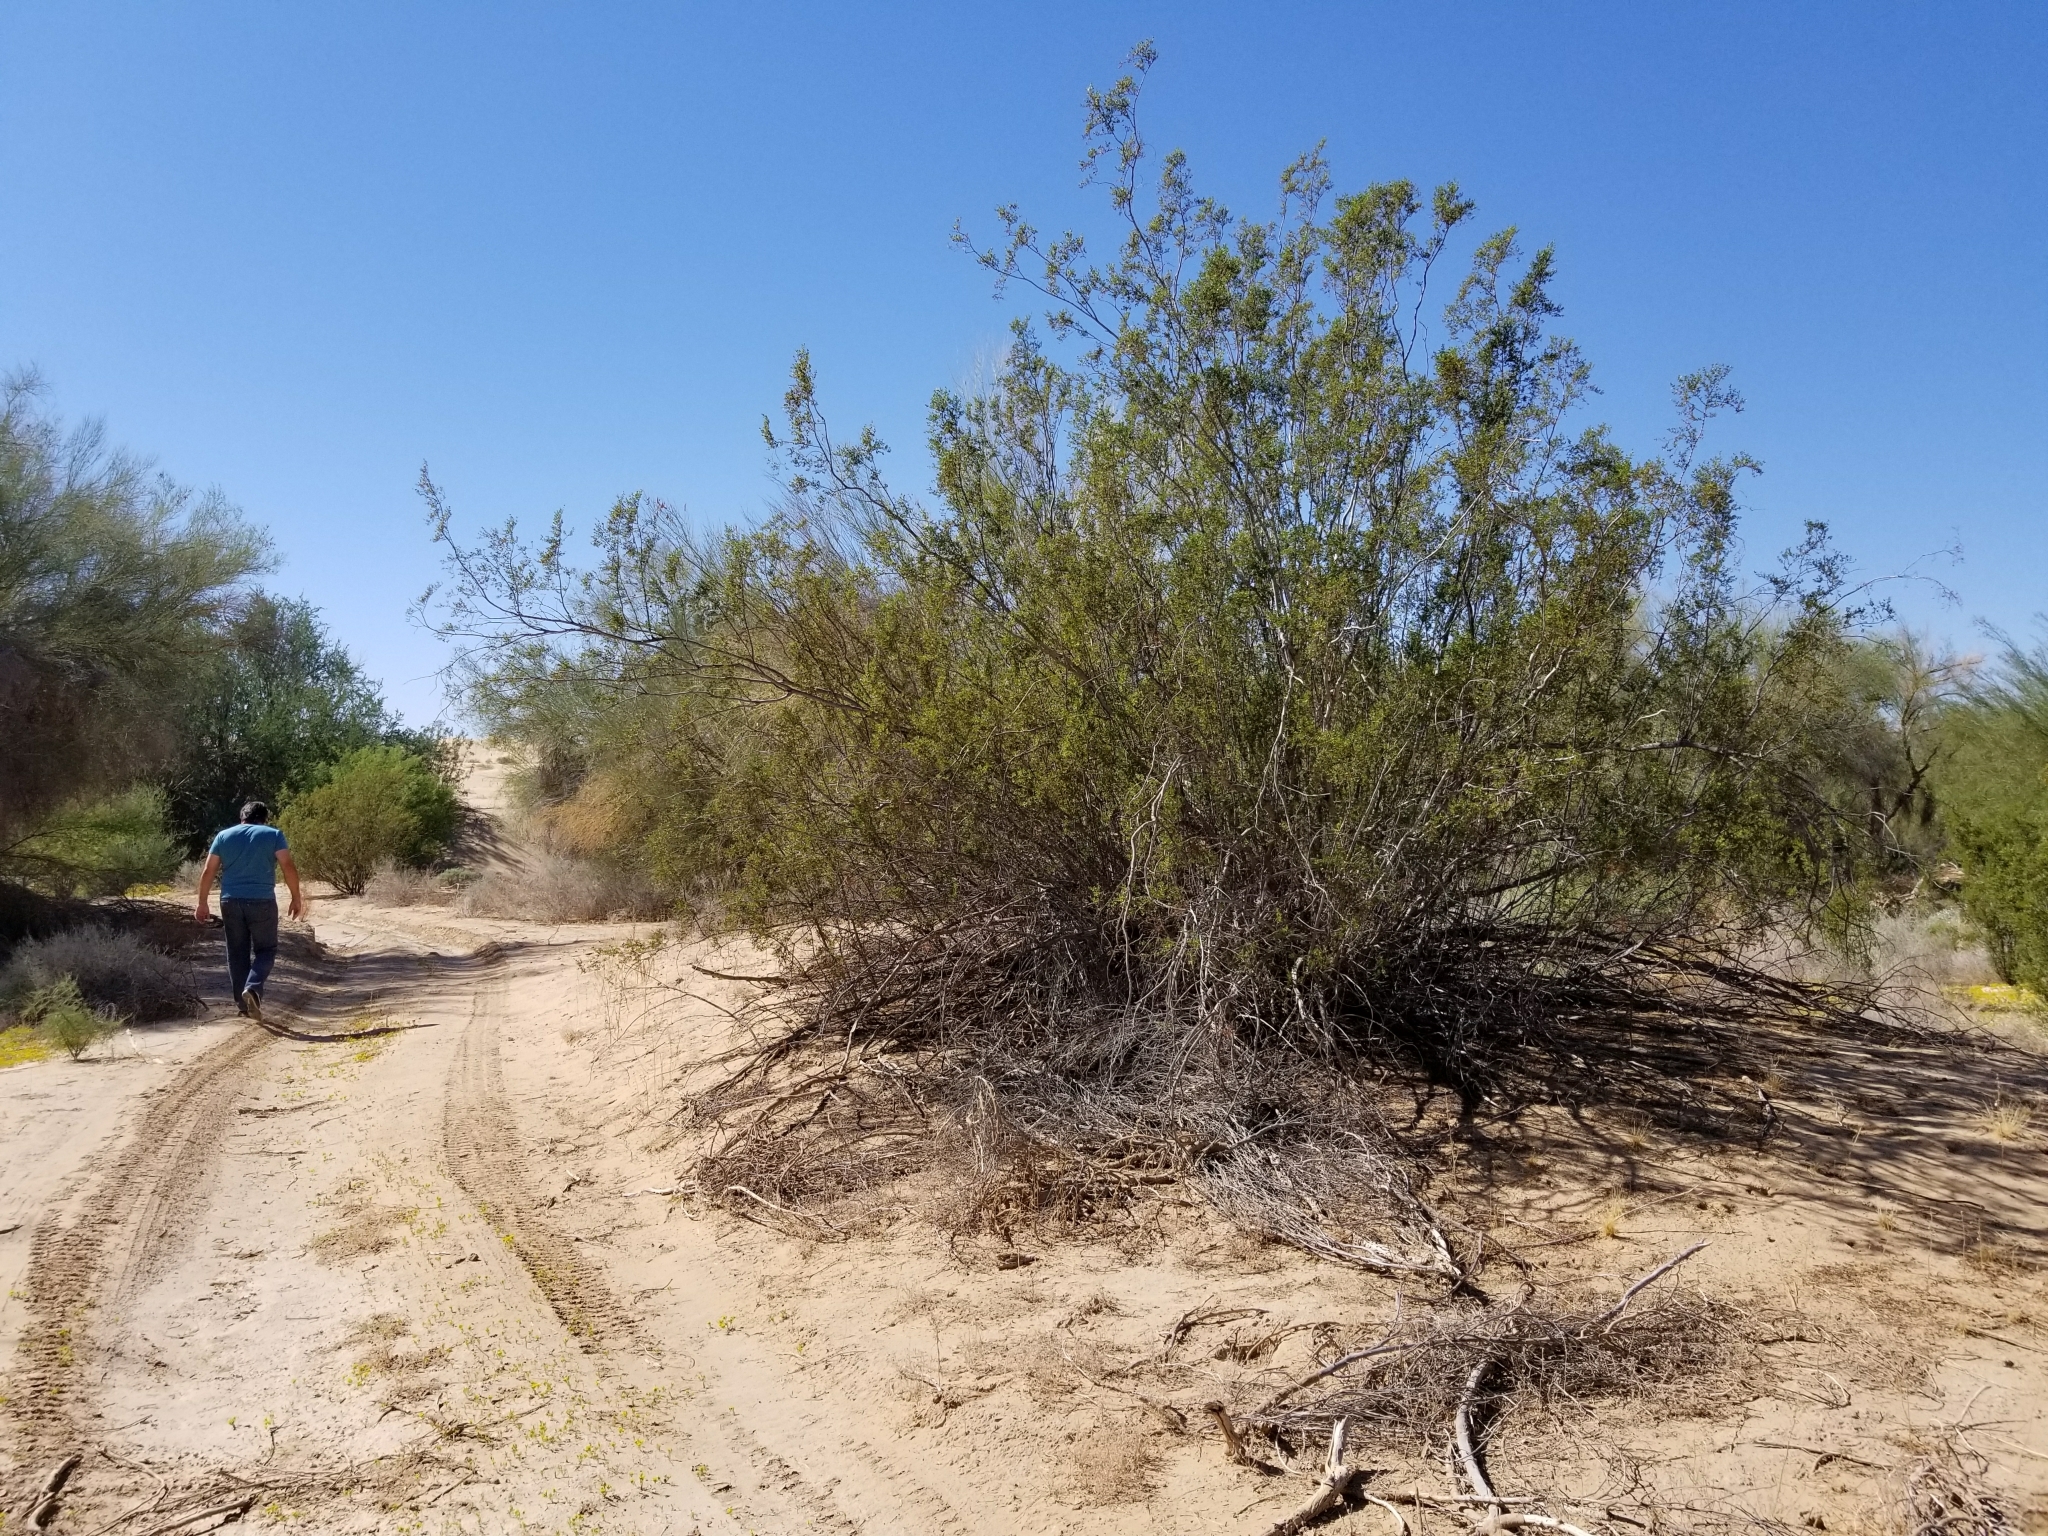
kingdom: Plantae
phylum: Tracheophyta
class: Magnoliopsida
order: Zygophyllales
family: Zygophyllaceae
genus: Larrea
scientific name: Larrea tridentata
